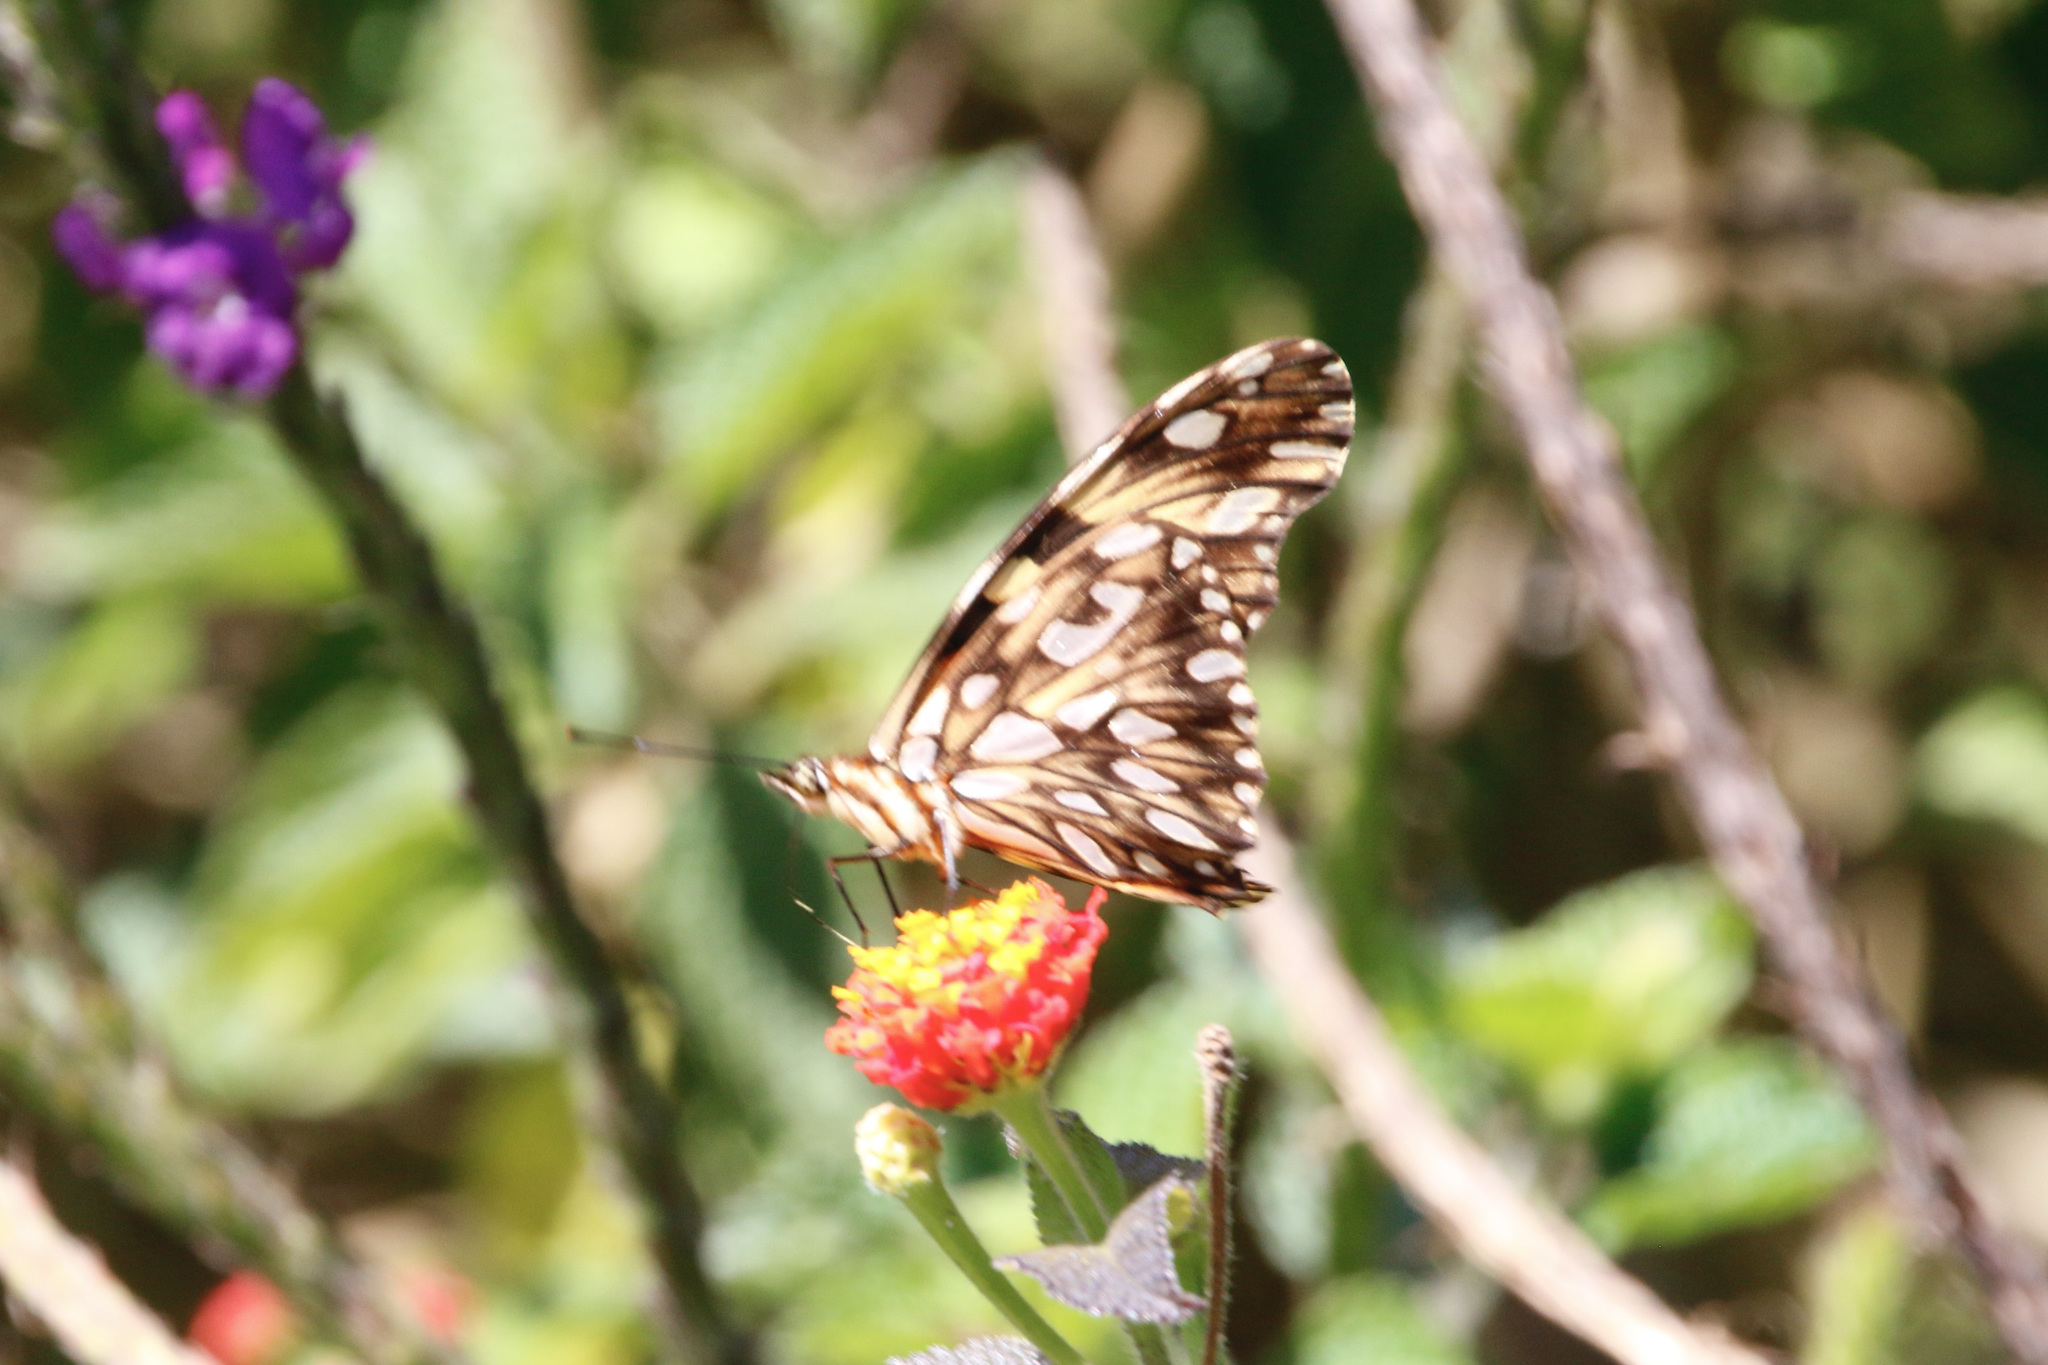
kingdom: Animalia
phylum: Arthropoda
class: Insecta
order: Lepidoptera
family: Nymphalidae
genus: Dione
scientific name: Dione juno
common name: Juno silverspot
